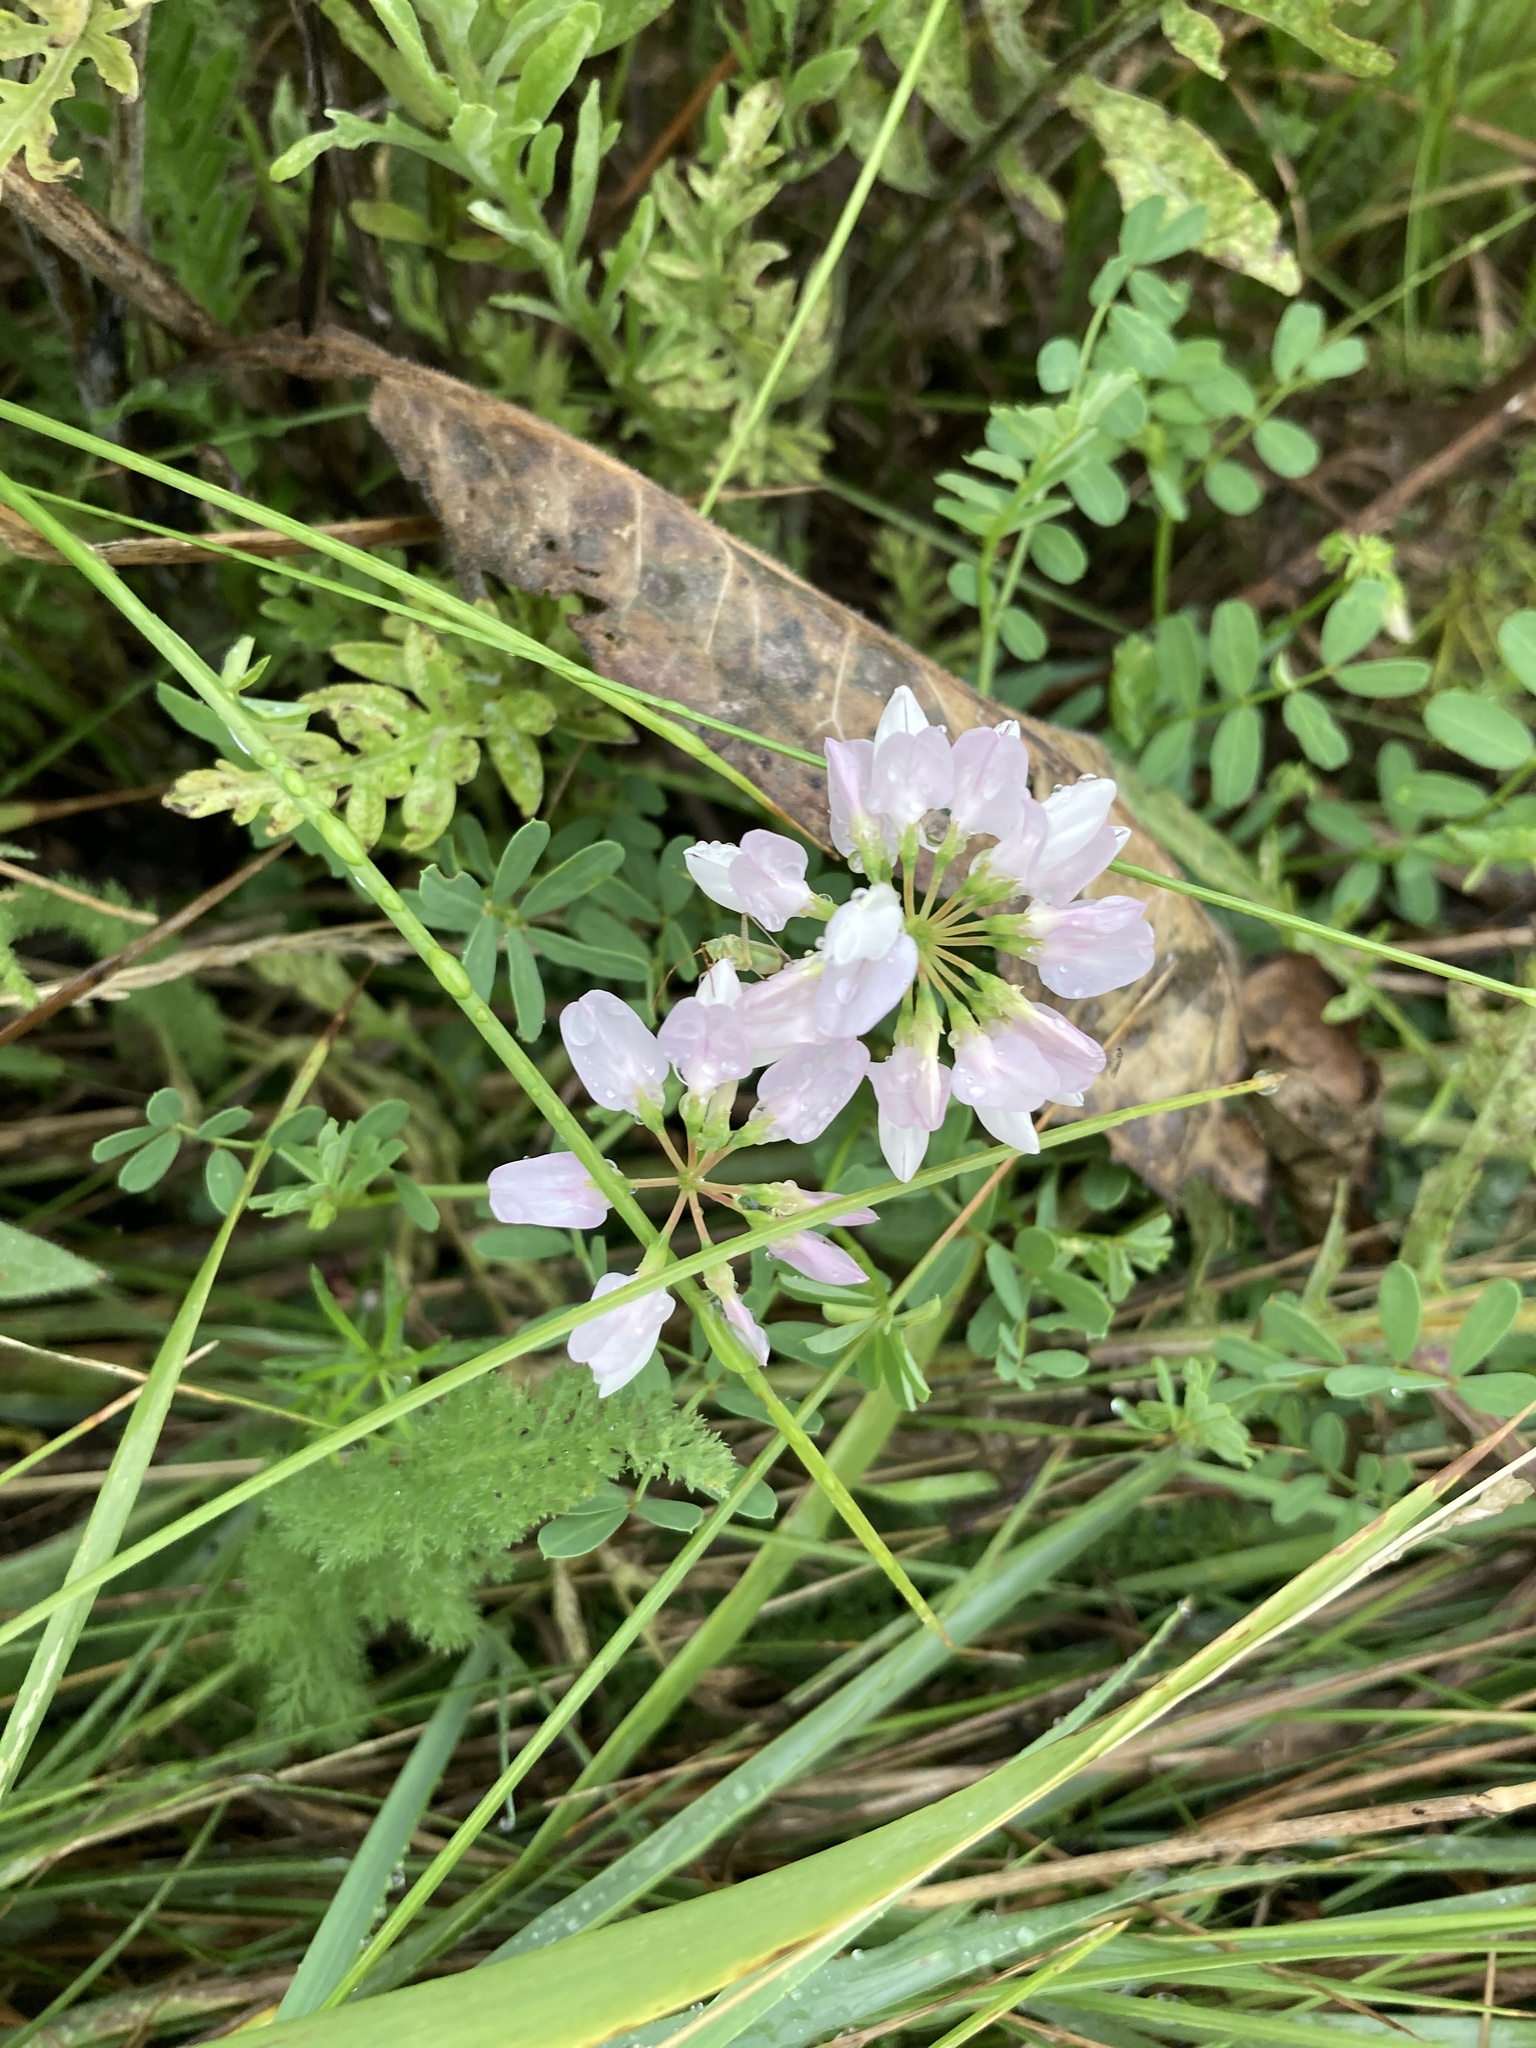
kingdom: Plantae
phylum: Tracheophyta
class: Magnoliopsida
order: Fabales
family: Fabaceae
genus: Coronilla
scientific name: Coronilla varia
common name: Crownvetch
